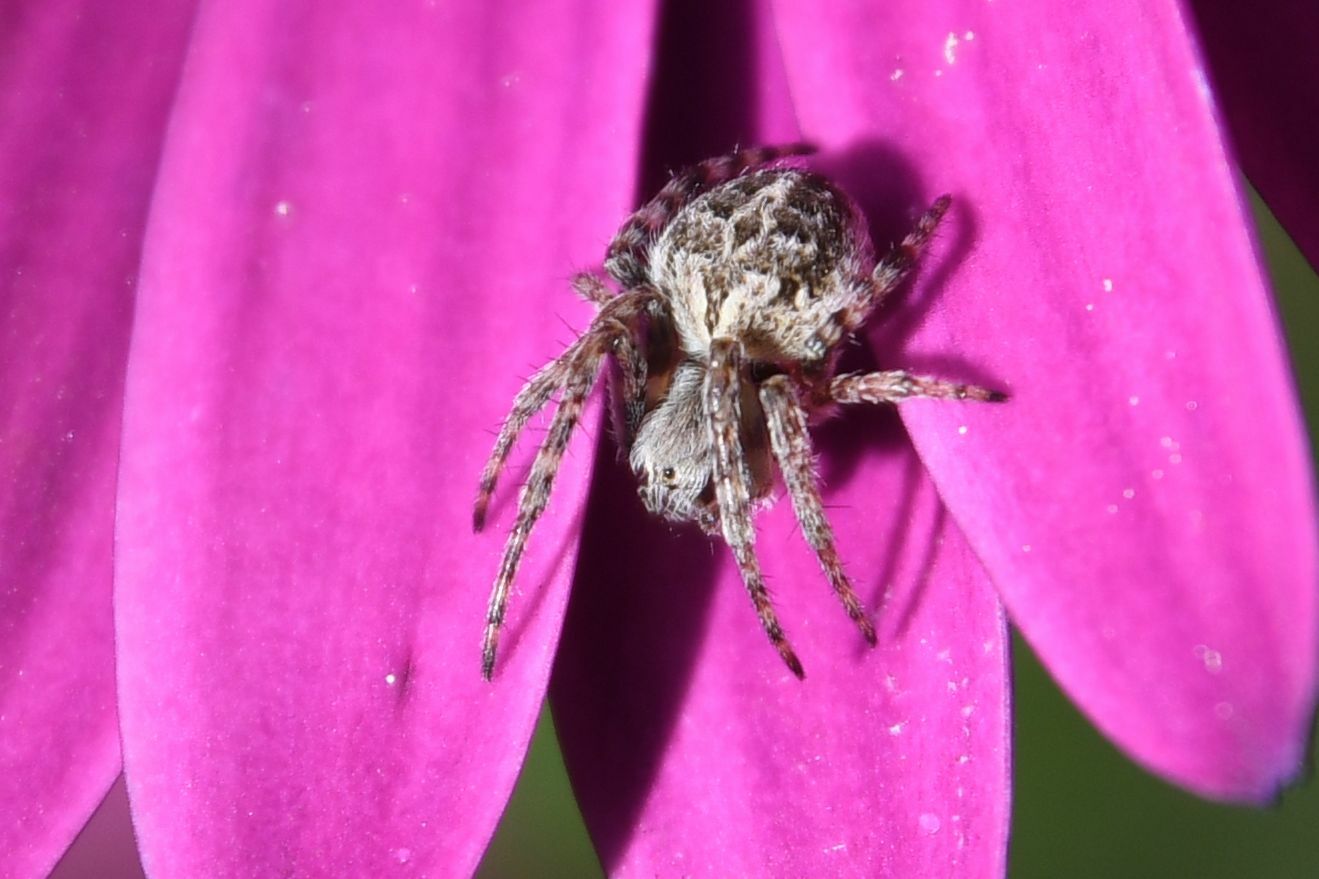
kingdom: Animalia
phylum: Arthropoda
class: Arachnida
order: Araneae
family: Araneidae
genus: Agalenatea
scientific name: Agalenatea redii
